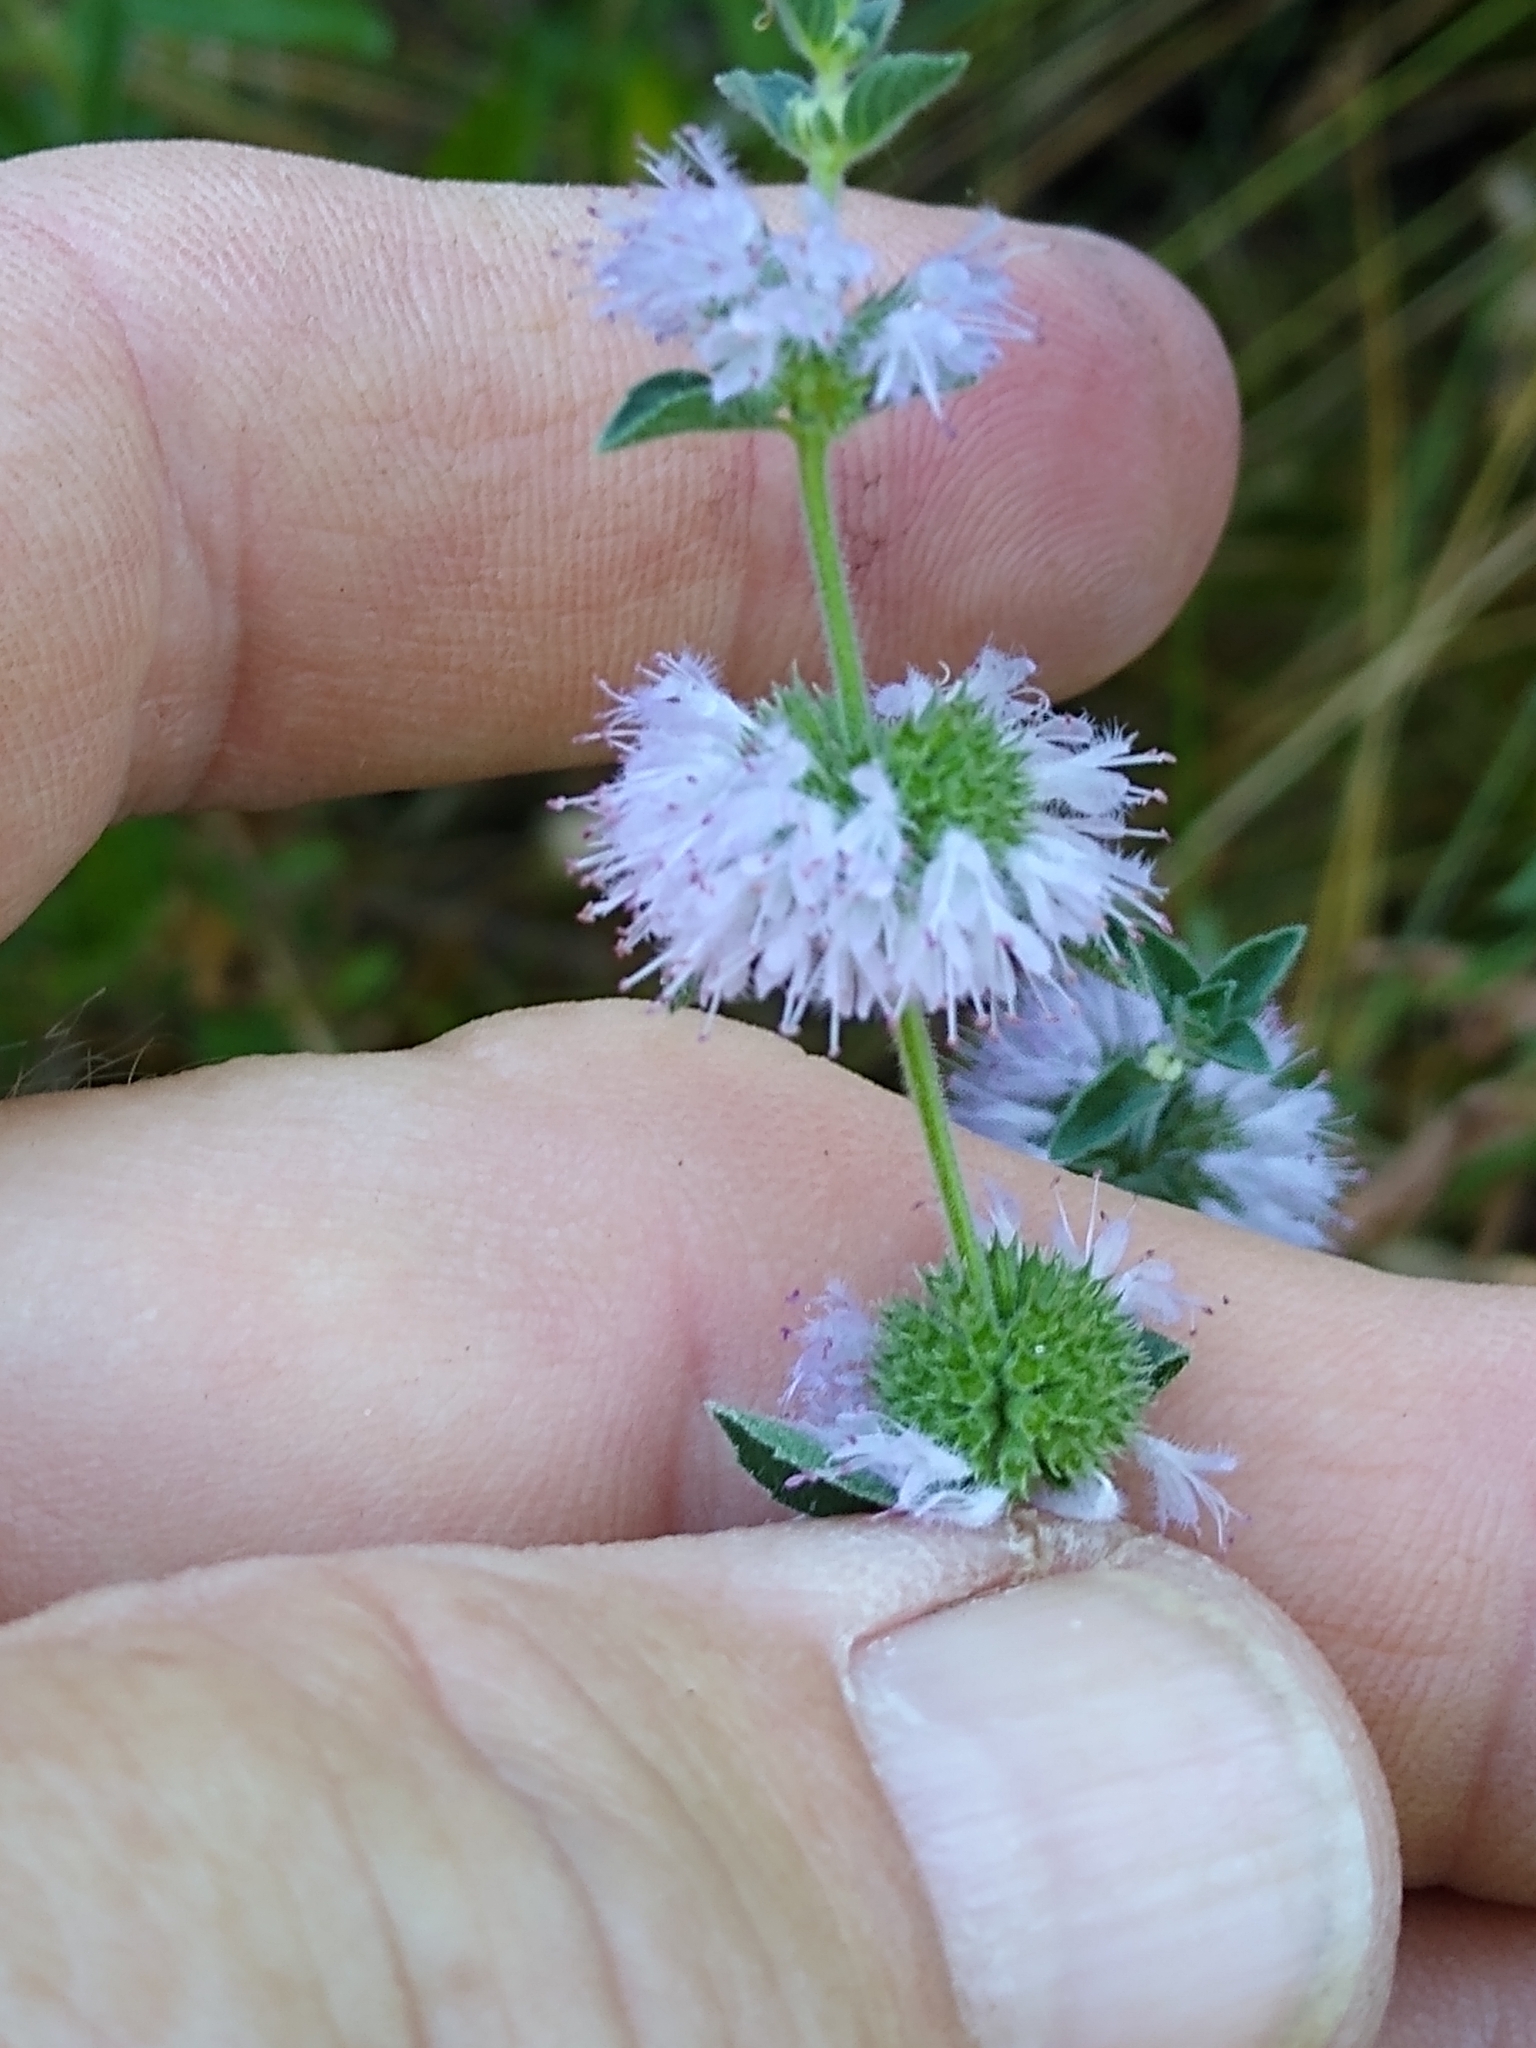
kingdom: Plantae
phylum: Tracheophyta
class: Magnoliopsida
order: Lamiales
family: Lamiaceae
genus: Mentha
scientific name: Mentha pulegium
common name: Pennyroyal
